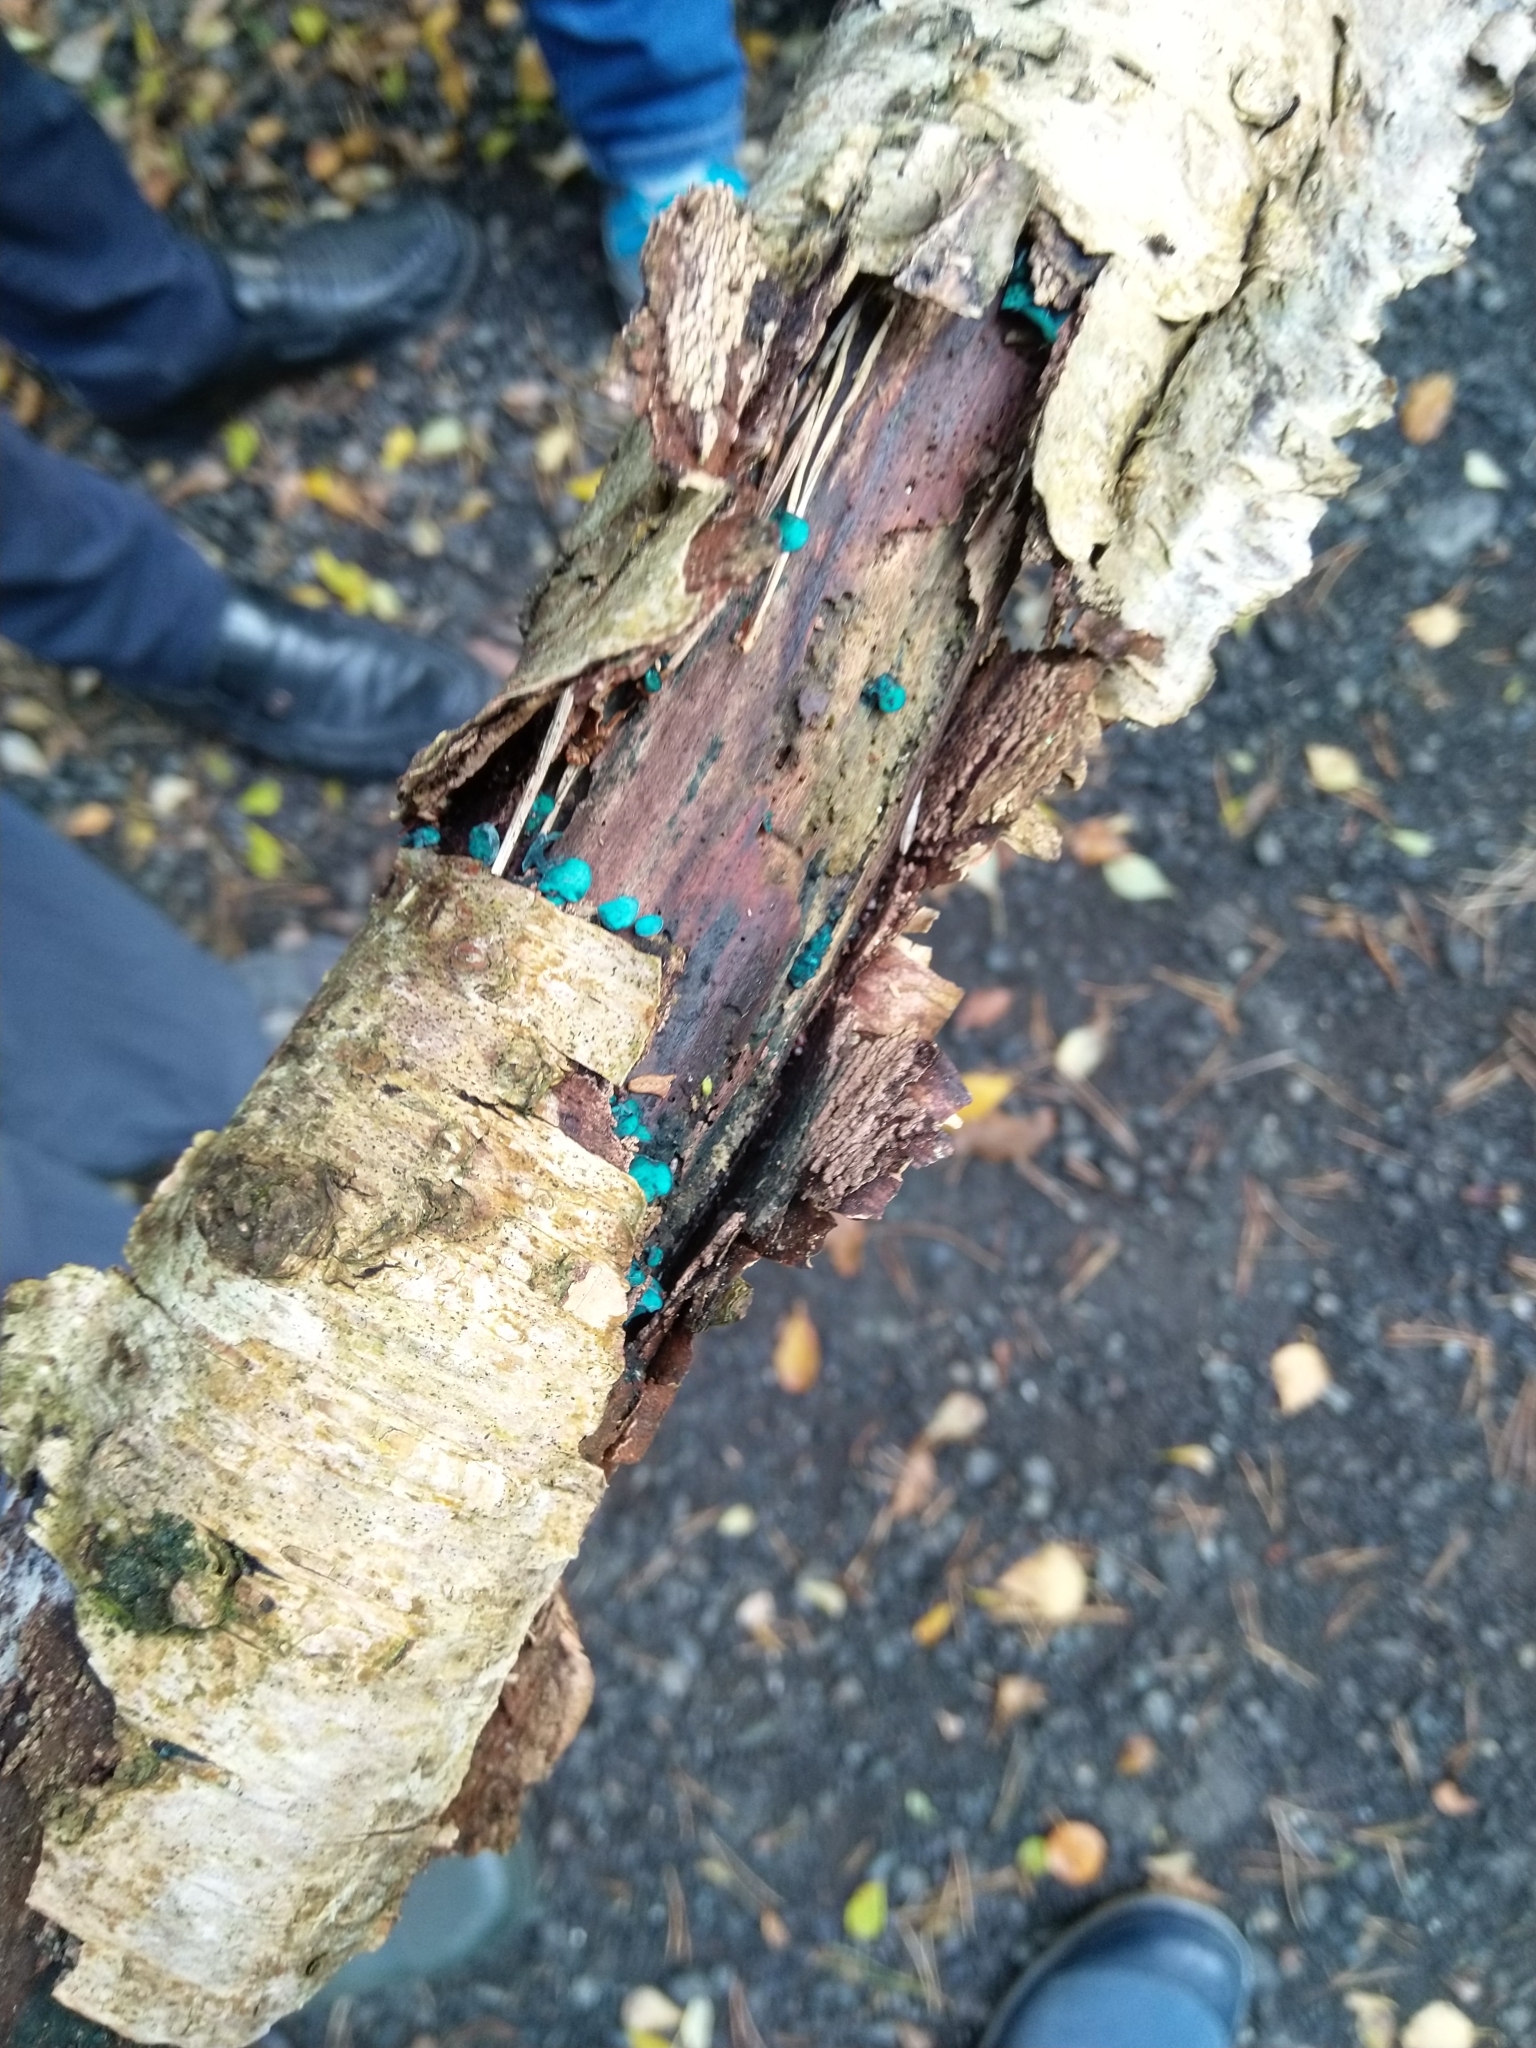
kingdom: Fungi
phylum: Ascomycota
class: Leotiomycetes
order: Helotiales
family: Chlorociboriaceae
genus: Chlorociboria
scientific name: Chlorociboria aeruginascens
